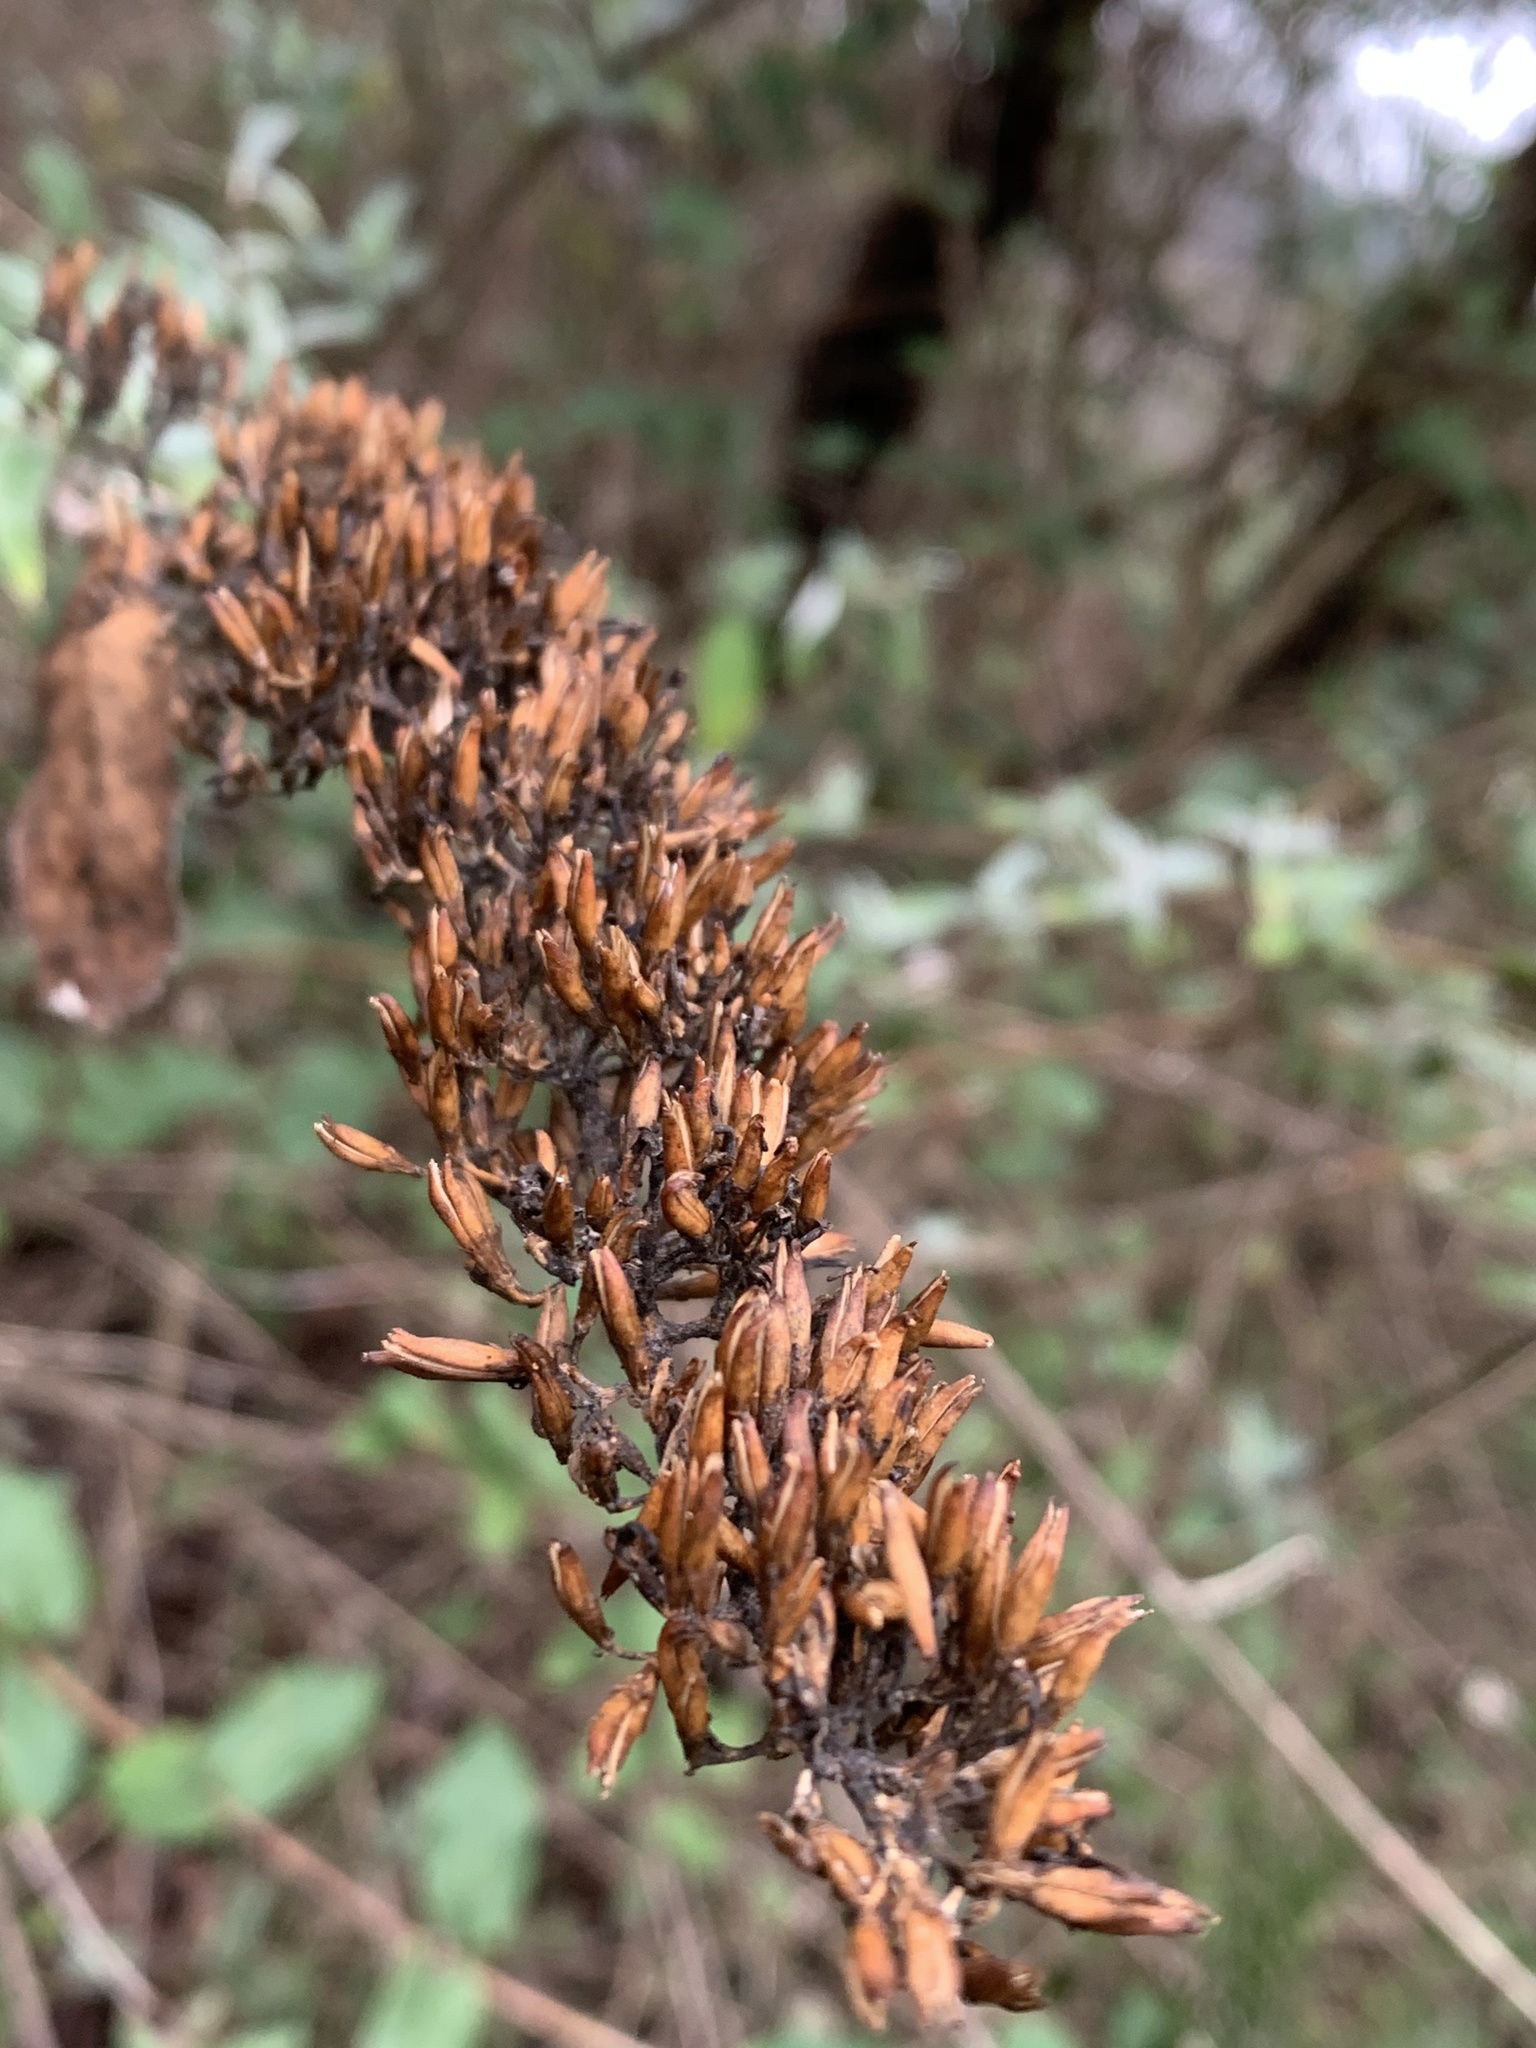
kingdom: Plantae
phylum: Tracheophyta
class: Magnoliopsida
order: Lamiales
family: Scrophulariaceae
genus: Buddleja
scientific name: Buddleja davidii
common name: Butterfly-bush
